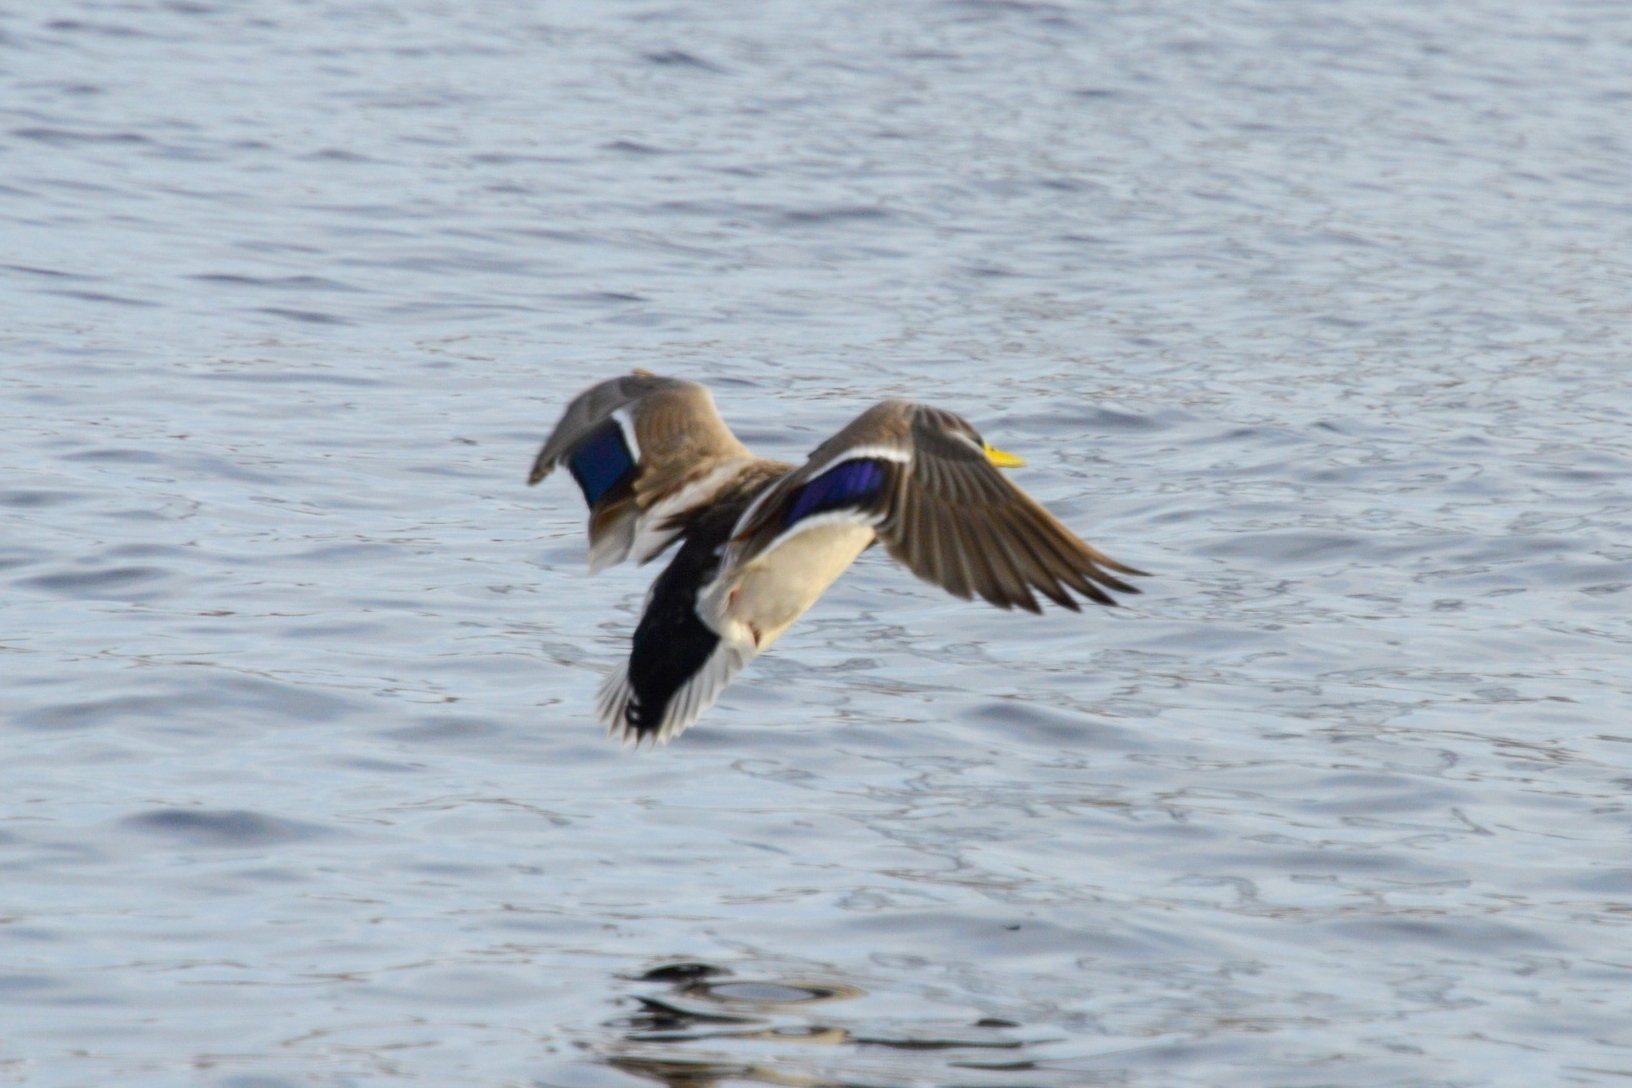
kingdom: Animalia
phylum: Chordata
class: Aves
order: Anseriformes
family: Anatidae
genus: Anas
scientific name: Anas platyrhynchos
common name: Mallard
